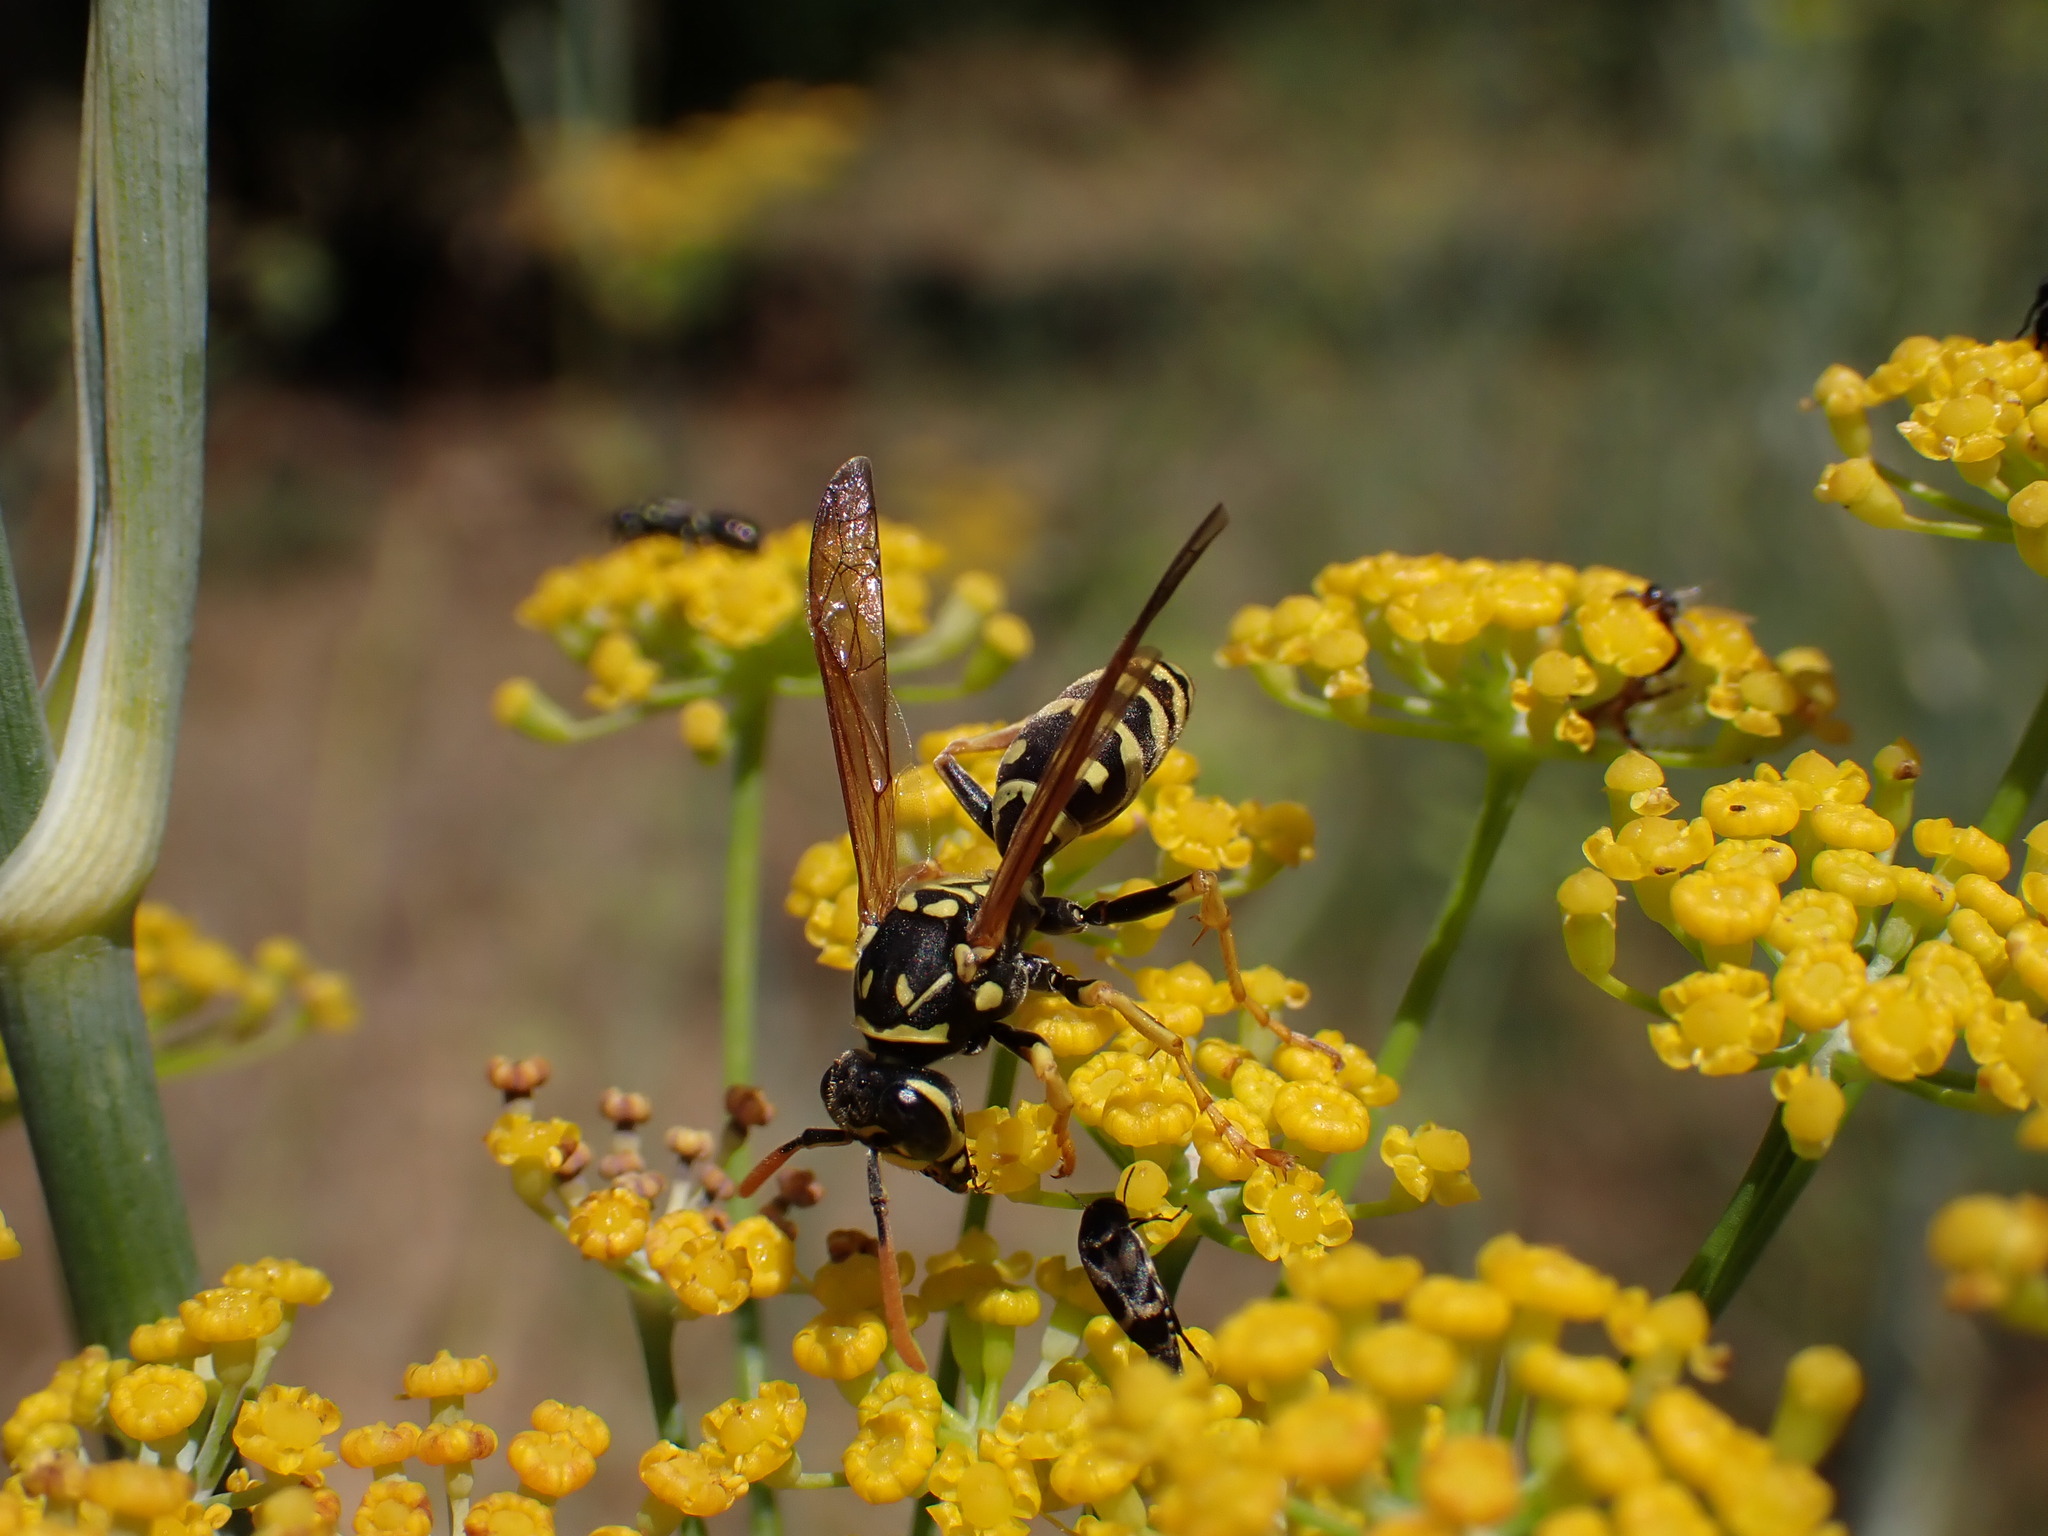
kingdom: Animalia
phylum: Arthropoda
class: Insecta
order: Hymenoptera
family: Eumenidae
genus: Polistes
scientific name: Polistes dominula
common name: Paper wasp
